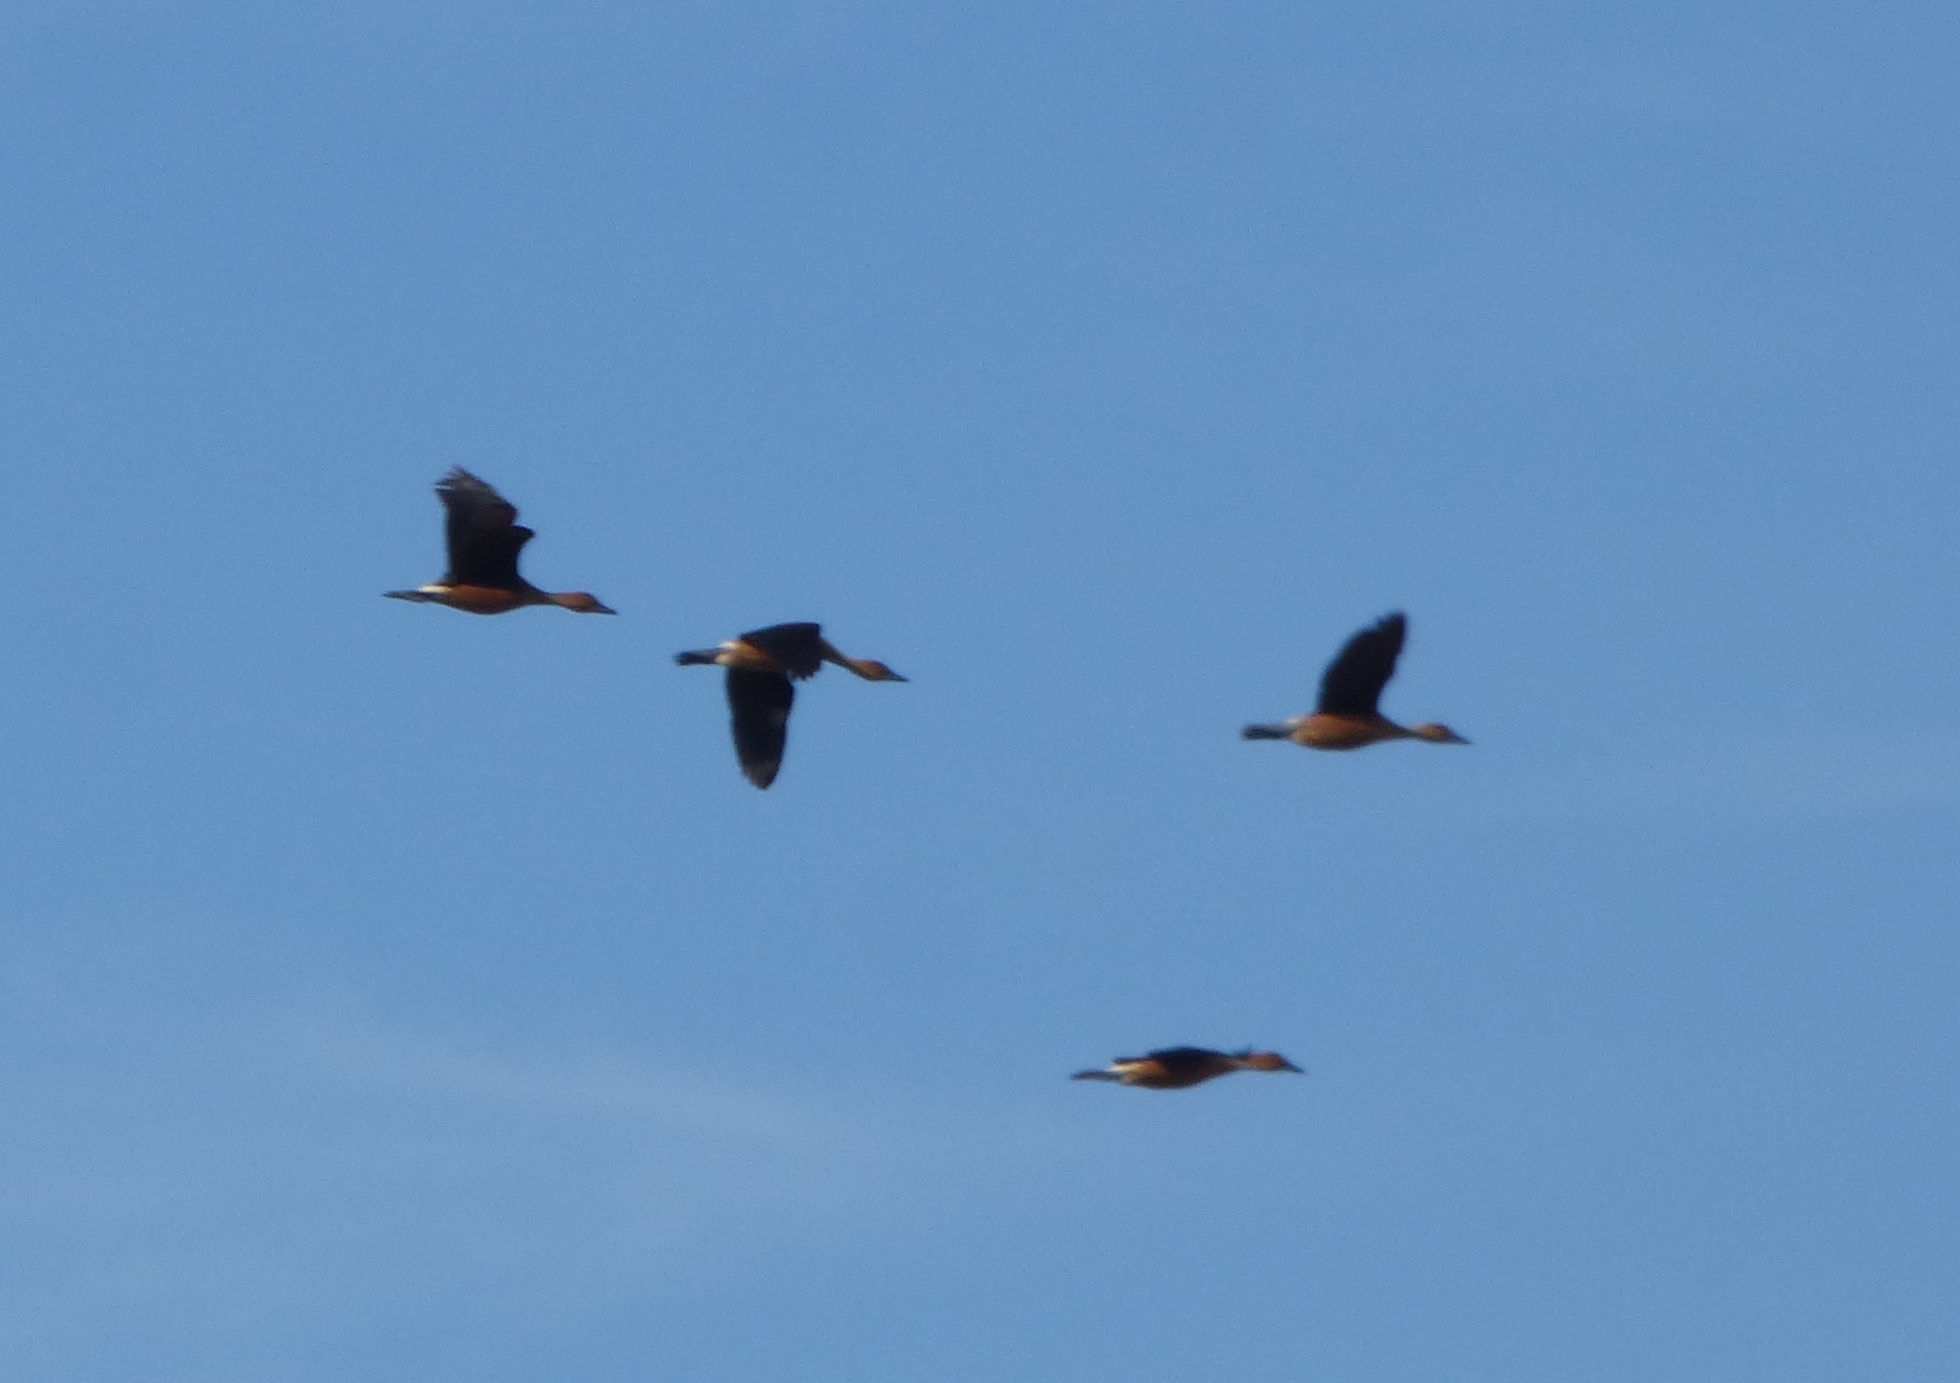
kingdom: Animalia
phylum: Chordata
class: Aves
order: Anseriformes
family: Anatidae
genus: Dendrocygna
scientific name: Dendrocygna bicolor
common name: Fulvous whistling duck
